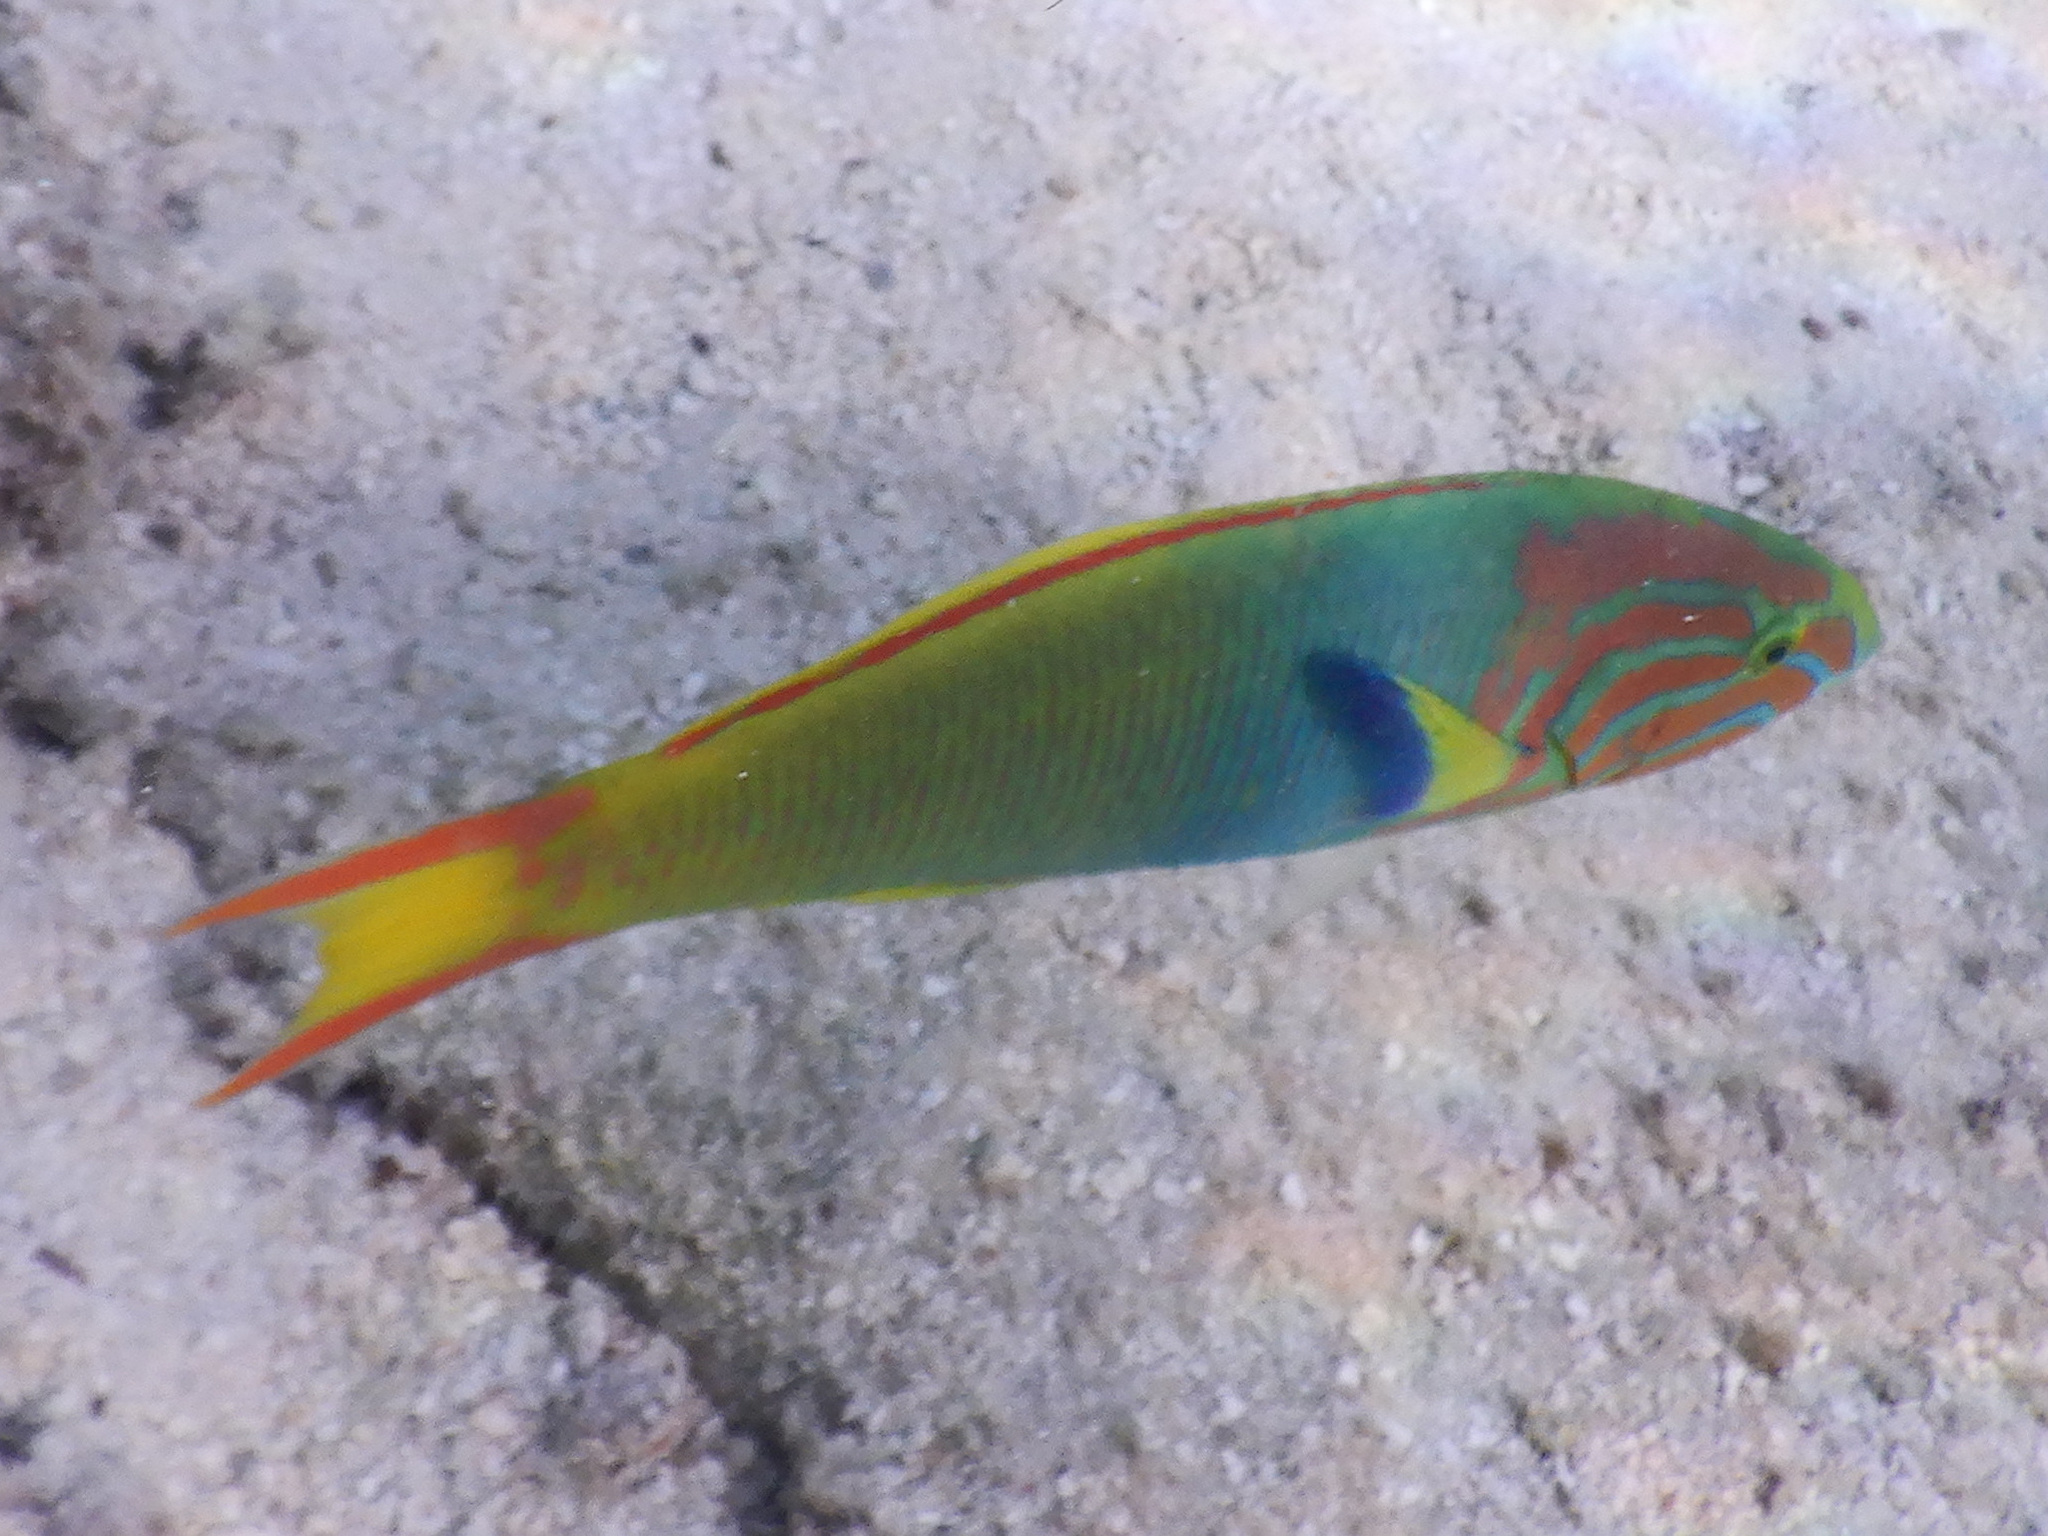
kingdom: Animalia
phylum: Chordata
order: Perciformes
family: Labridae
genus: Thalassoma
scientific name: Thalassoma lutescens
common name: Green moon wrasse
